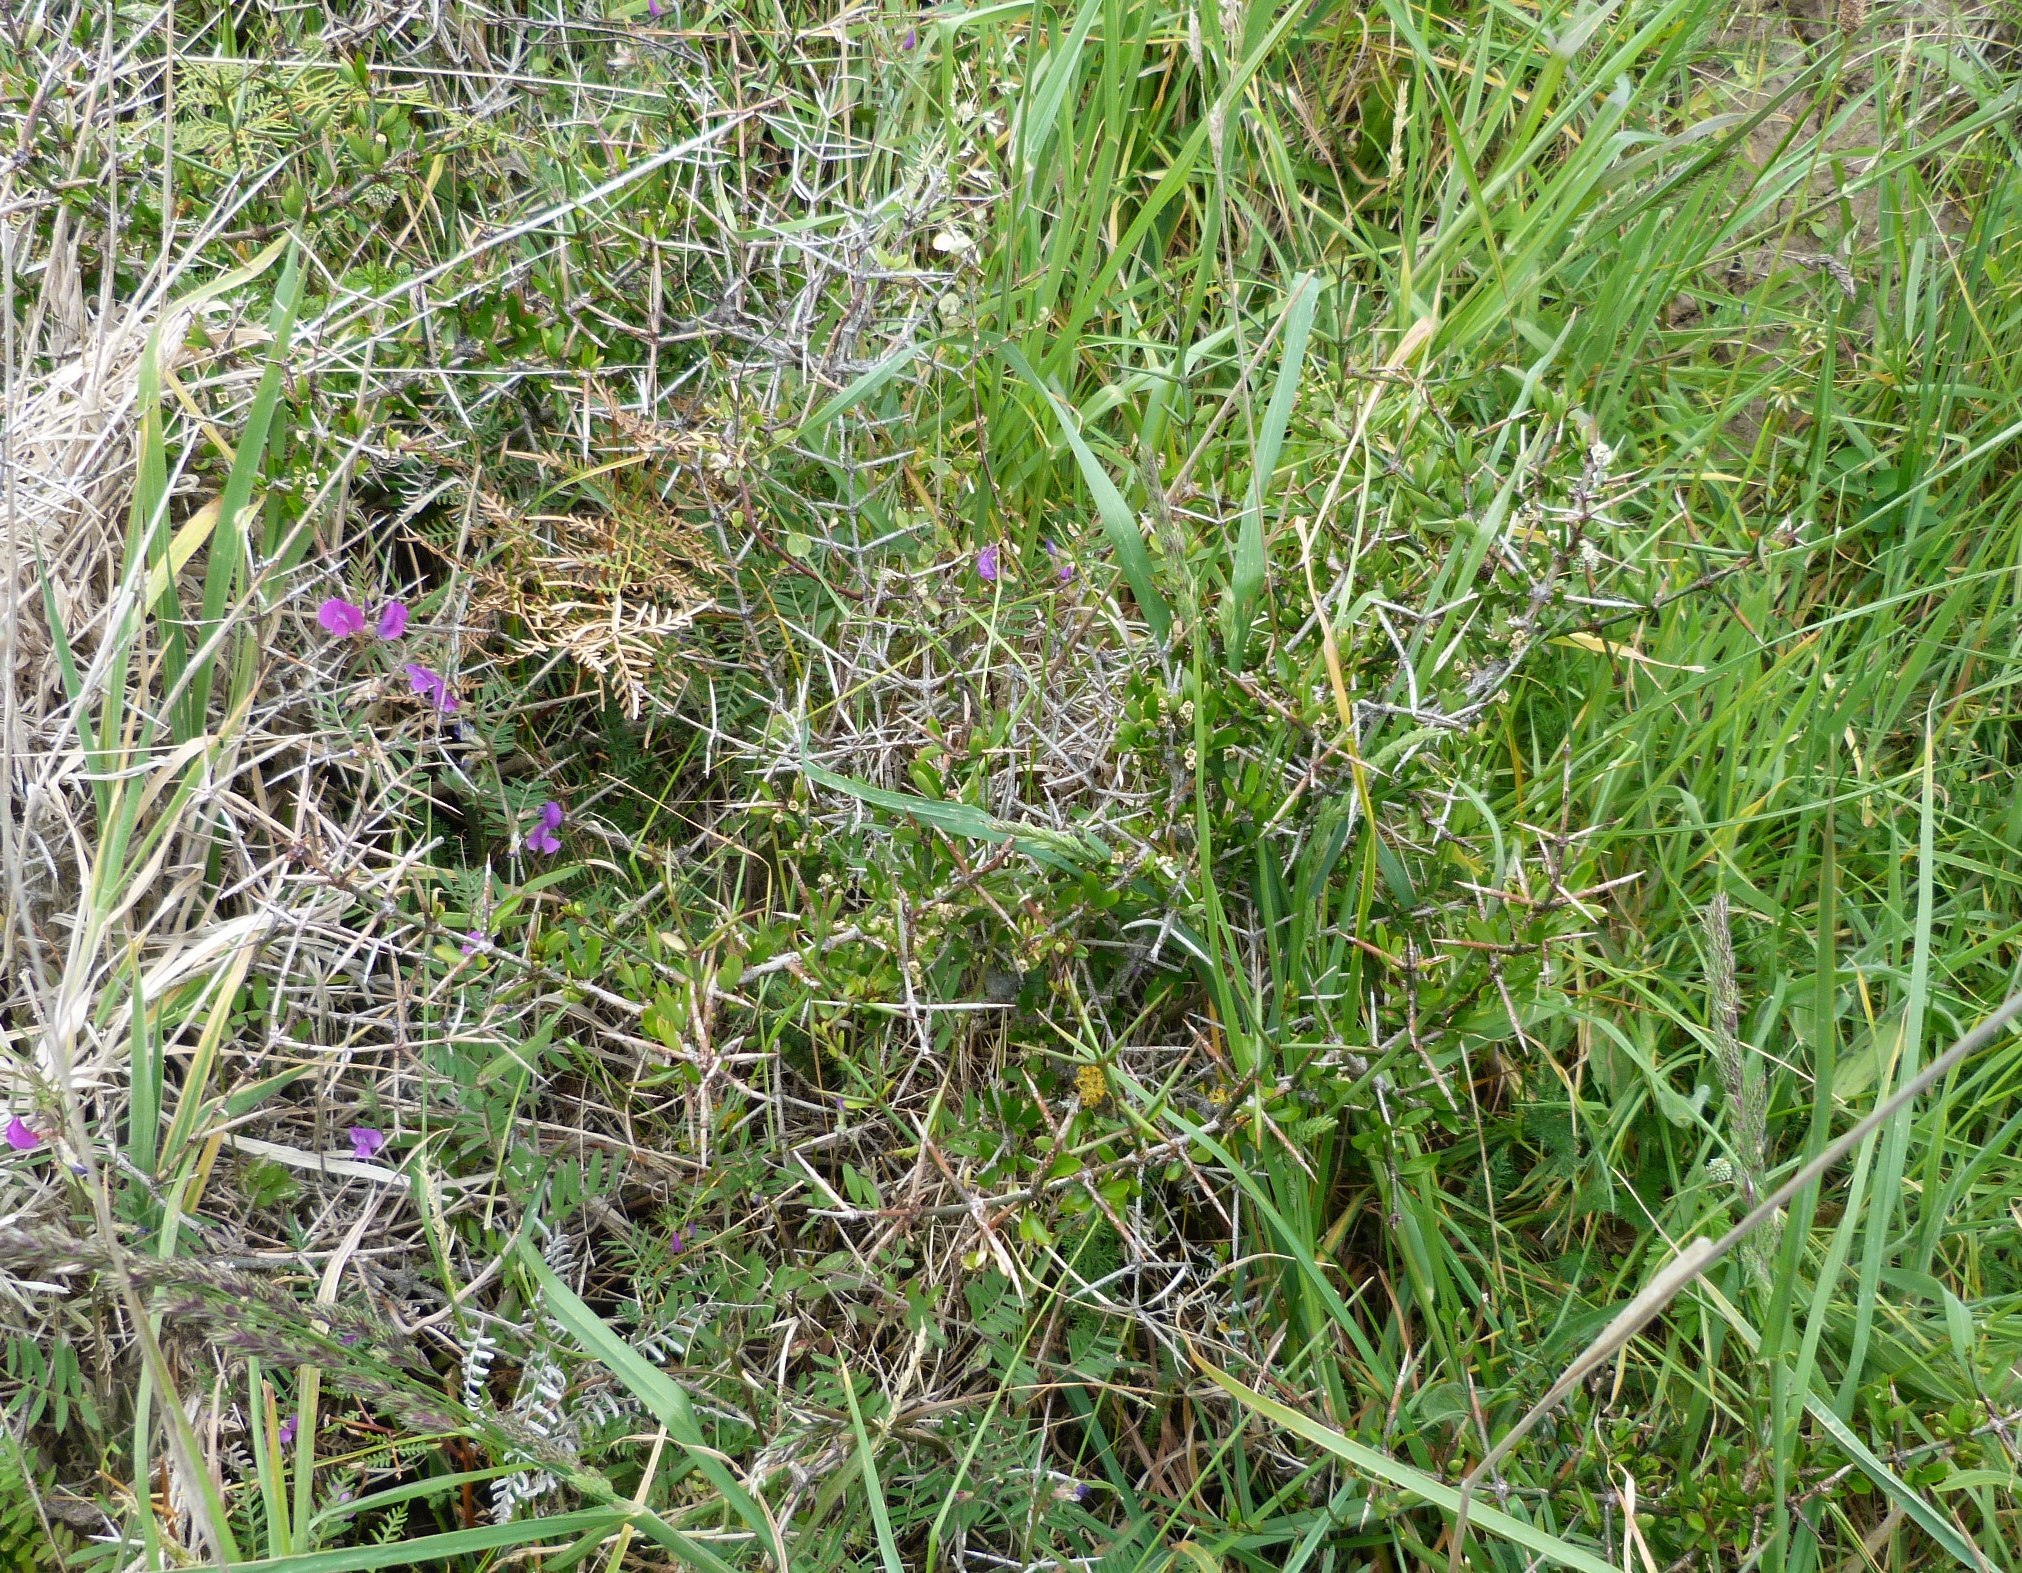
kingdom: Plantae
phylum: Tracheophyta
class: Magnoliopsida
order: Rosales
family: Rhamnaceae
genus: Discaria
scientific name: Discaria toumatou
